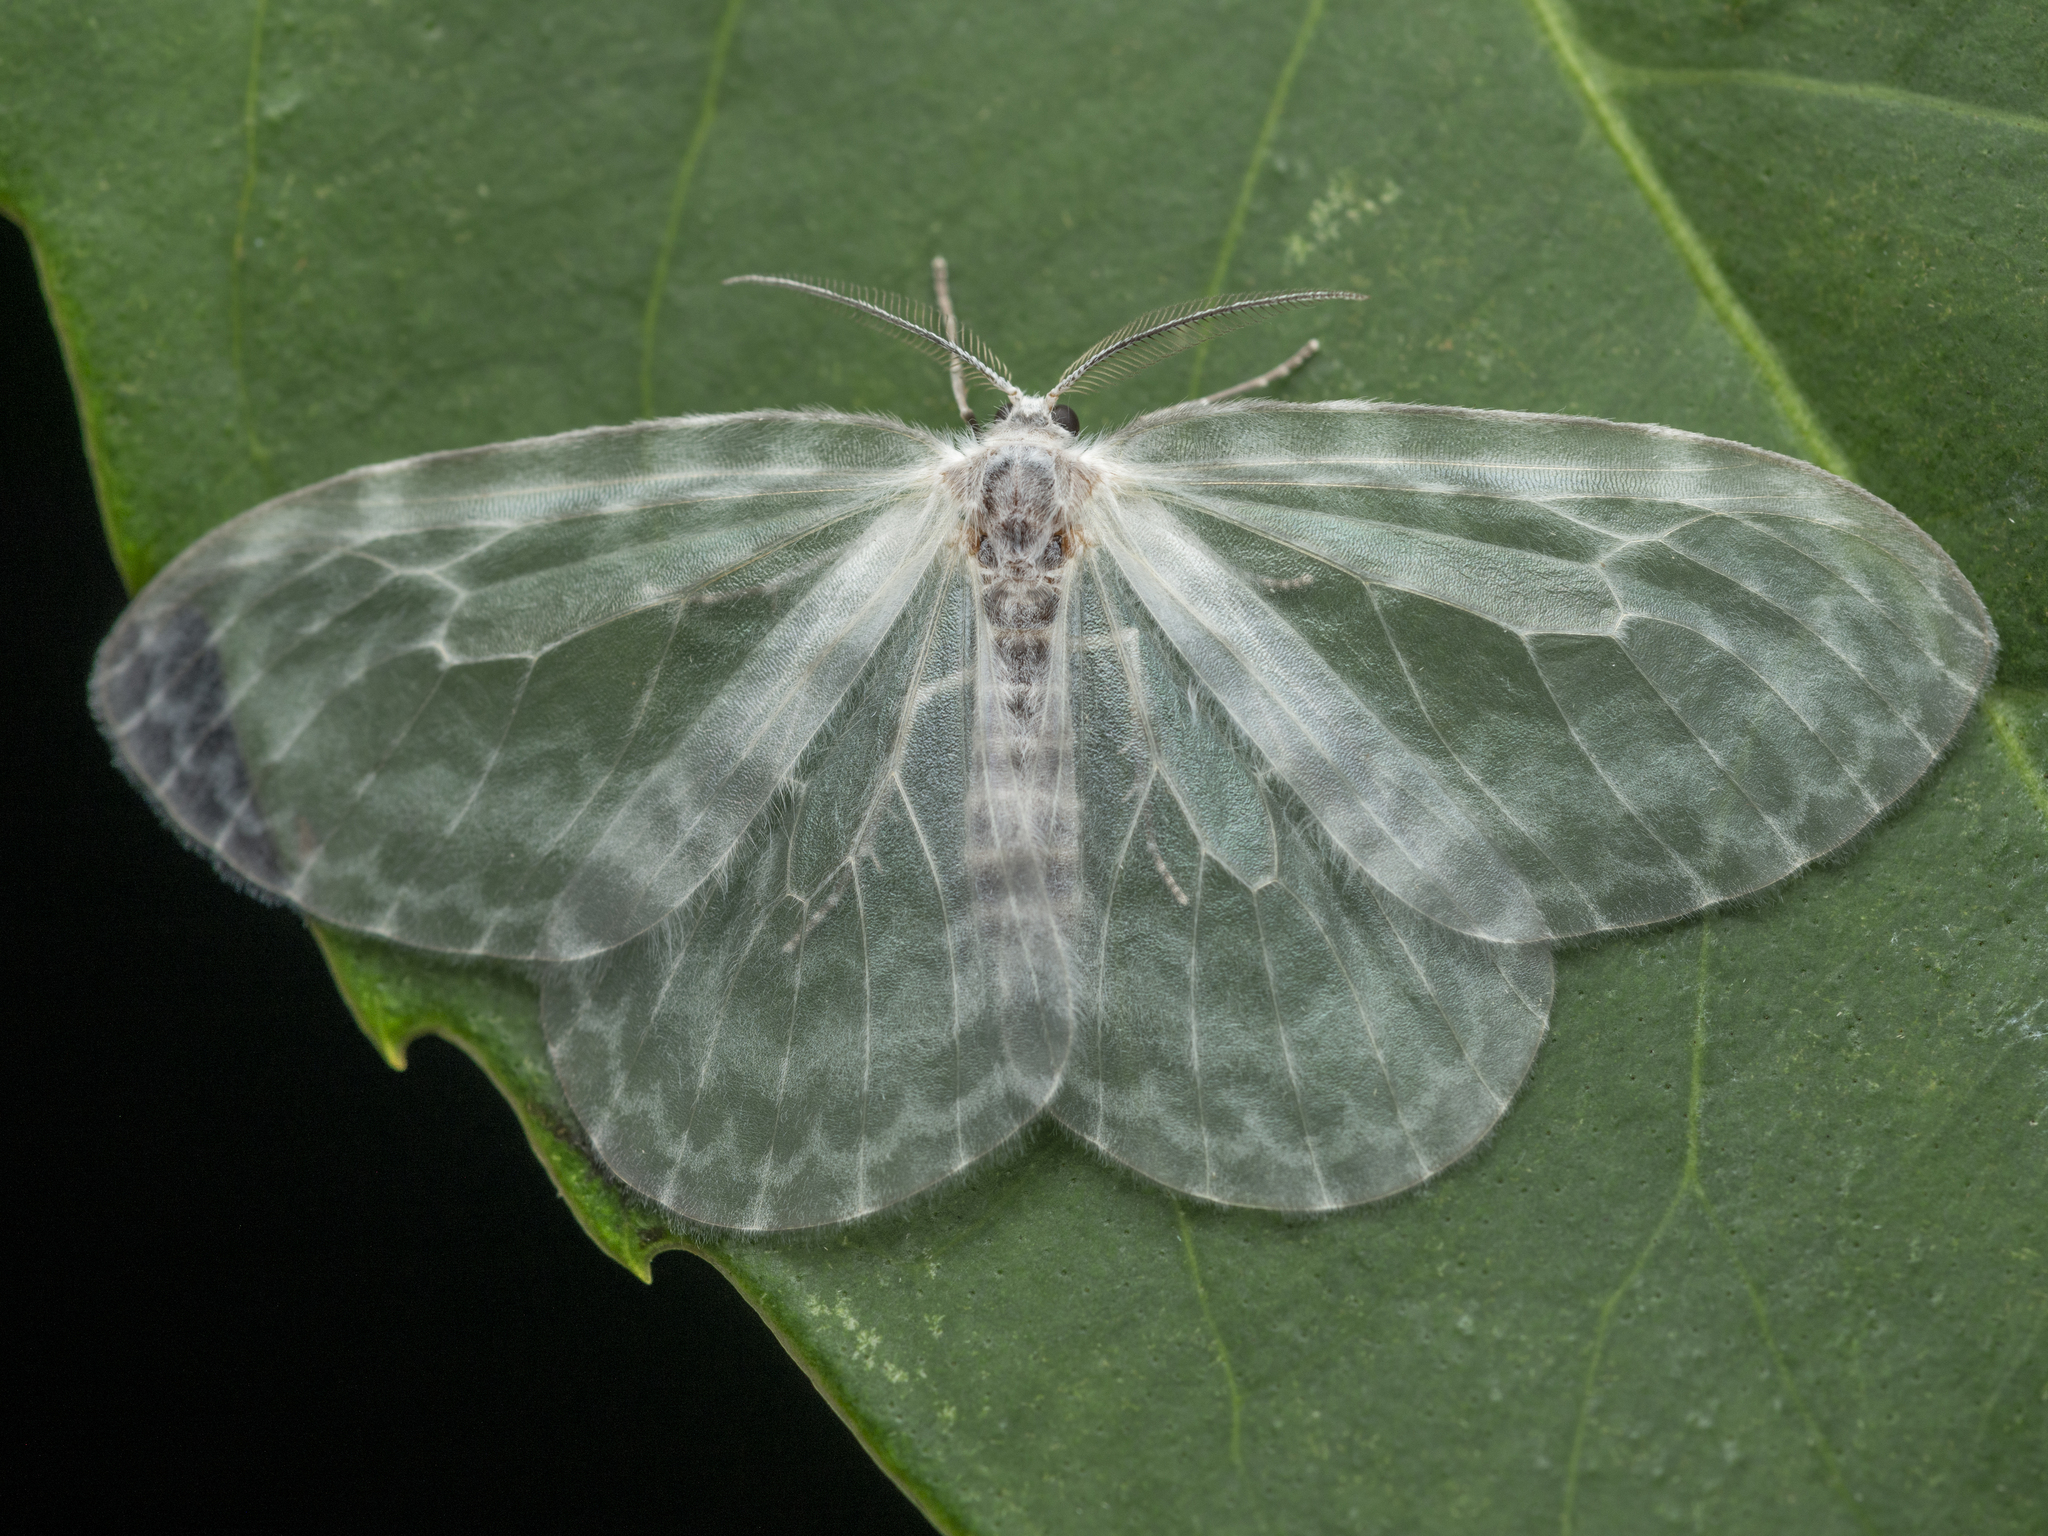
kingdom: Animalia
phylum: Arthropoda
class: Insecta
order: Lepidoptera
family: Drepanidae
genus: Deroca
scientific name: Deroca hyalina
